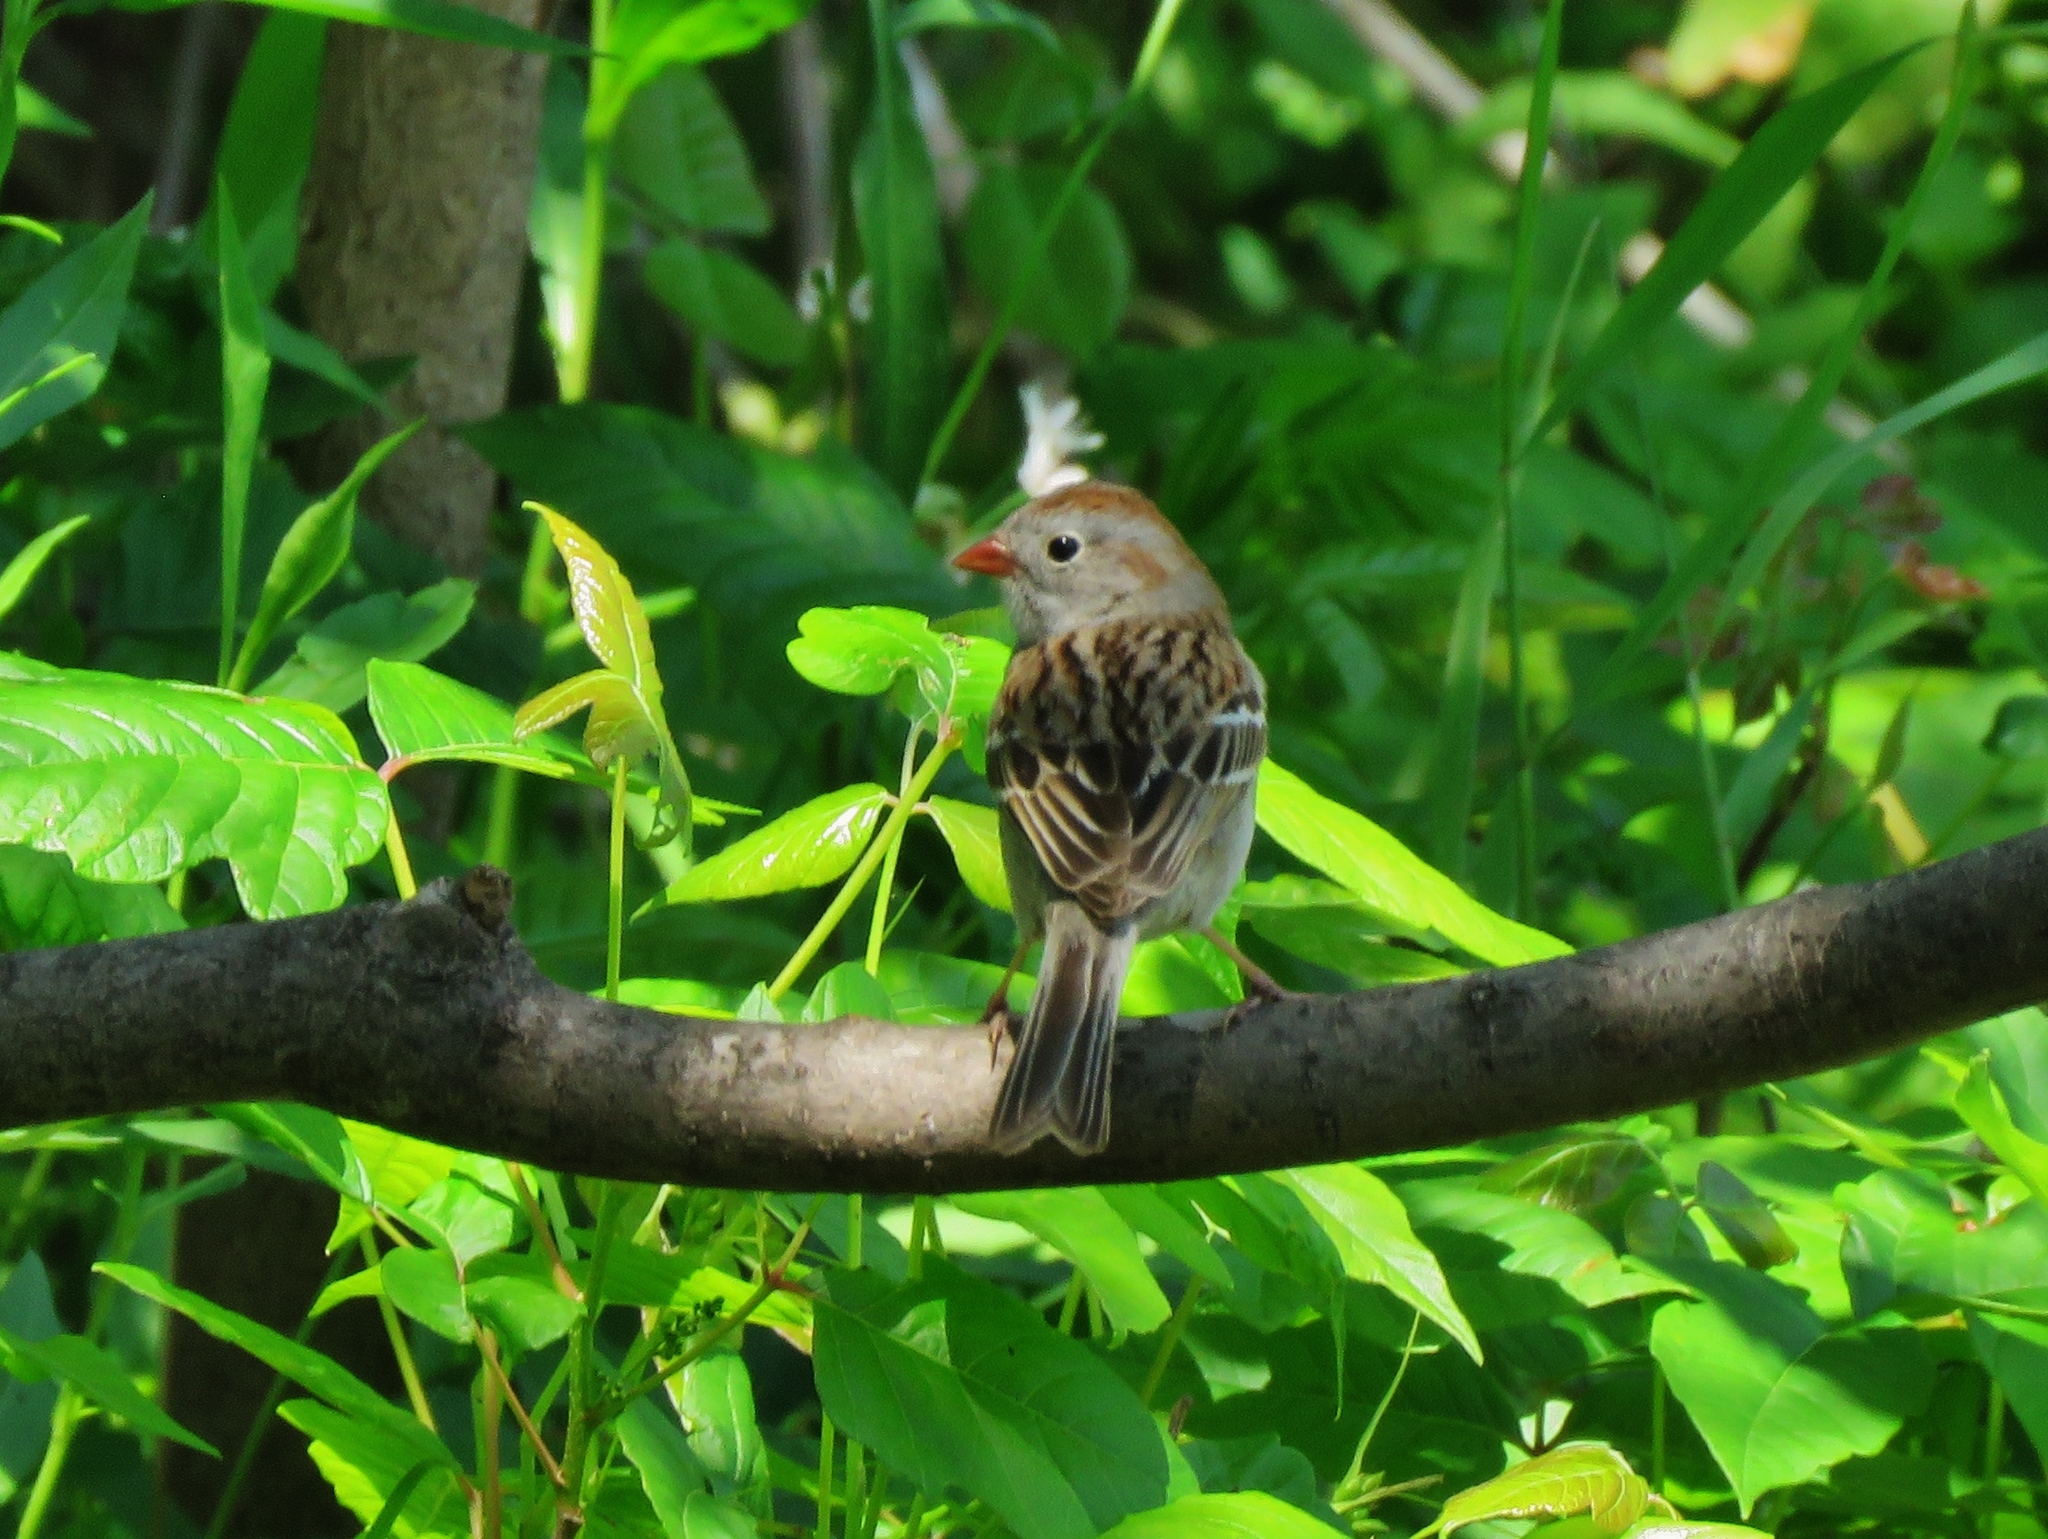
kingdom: Animalia
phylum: Chordata
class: Aves
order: Passeriformes
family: Passerellidae
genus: Spizella
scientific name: Spizella pusilla
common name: Field sparrow
